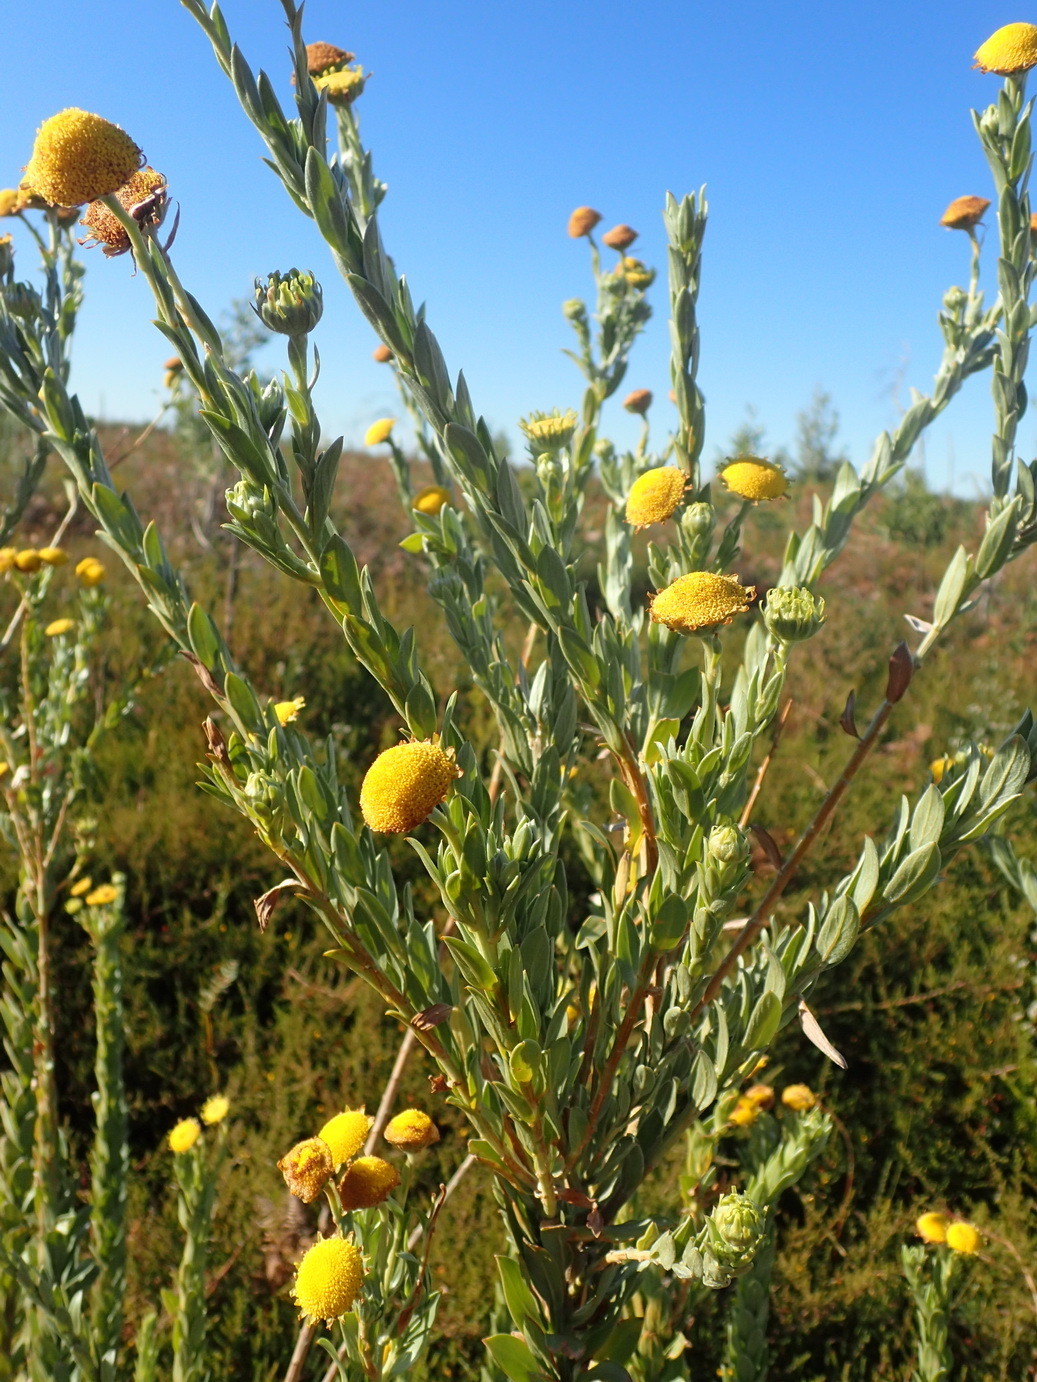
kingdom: Plantae
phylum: Tracheophyta
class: Magnoliopsida
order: Asterales
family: Asteraceae
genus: Schistostephium
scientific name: Schistostephium umbellatum
